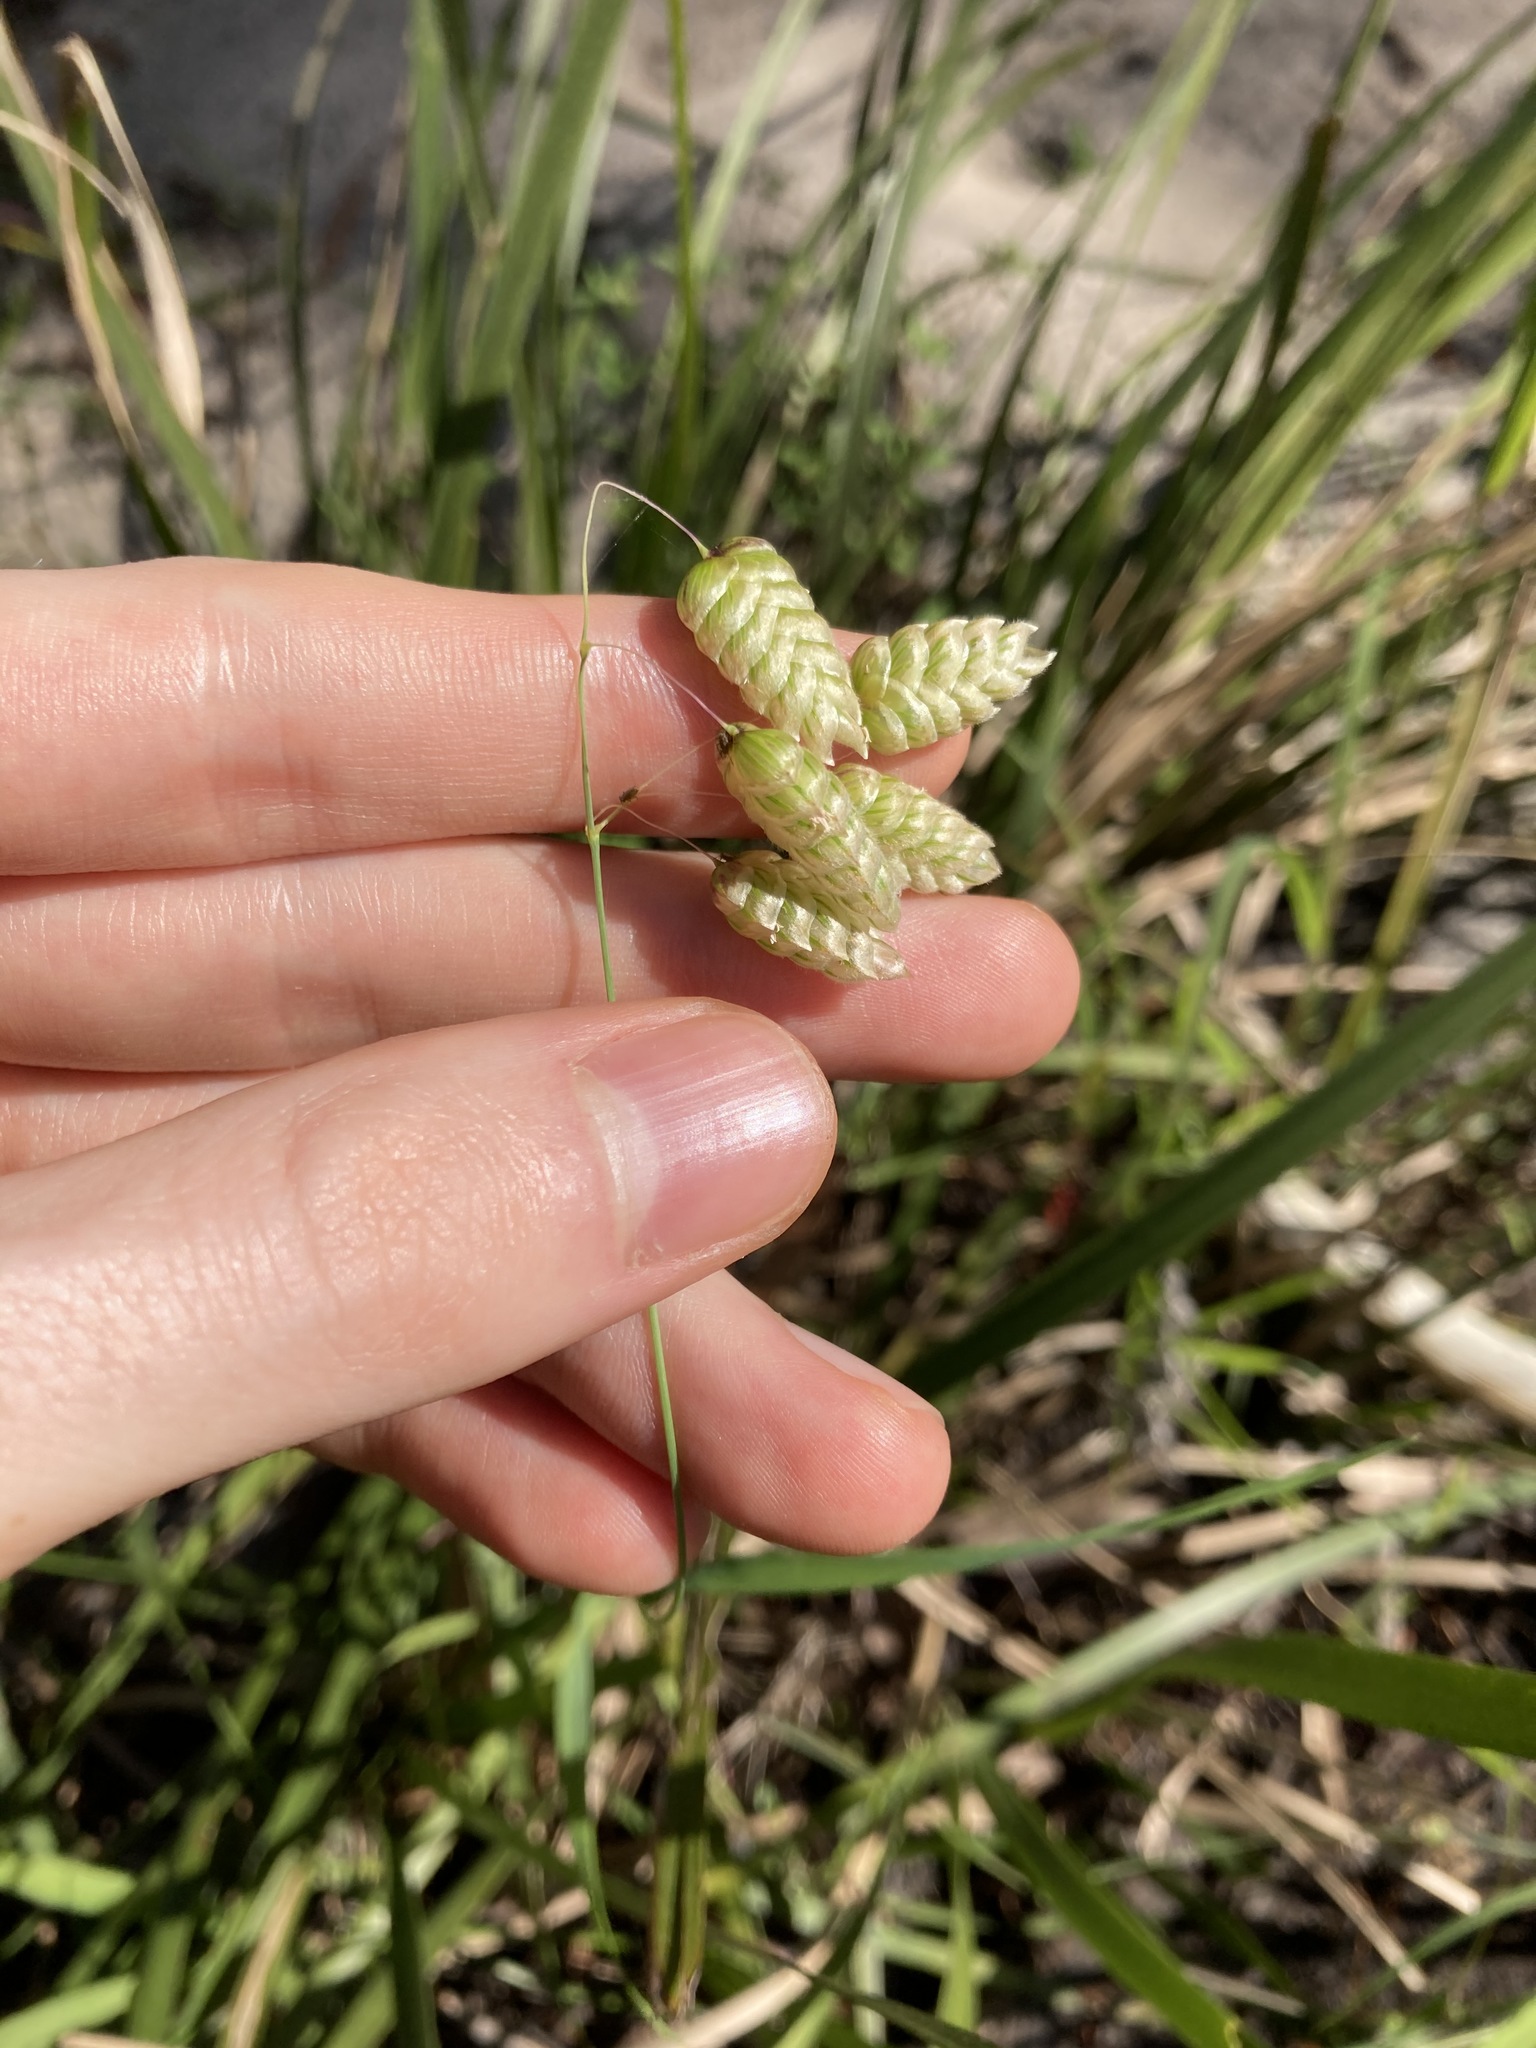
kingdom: Plantae
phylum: Tracheophyta
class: Liliopsida
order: Poales
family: Poaceae
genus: Briza
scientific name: Briza maxima
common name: Big quakinggrass
